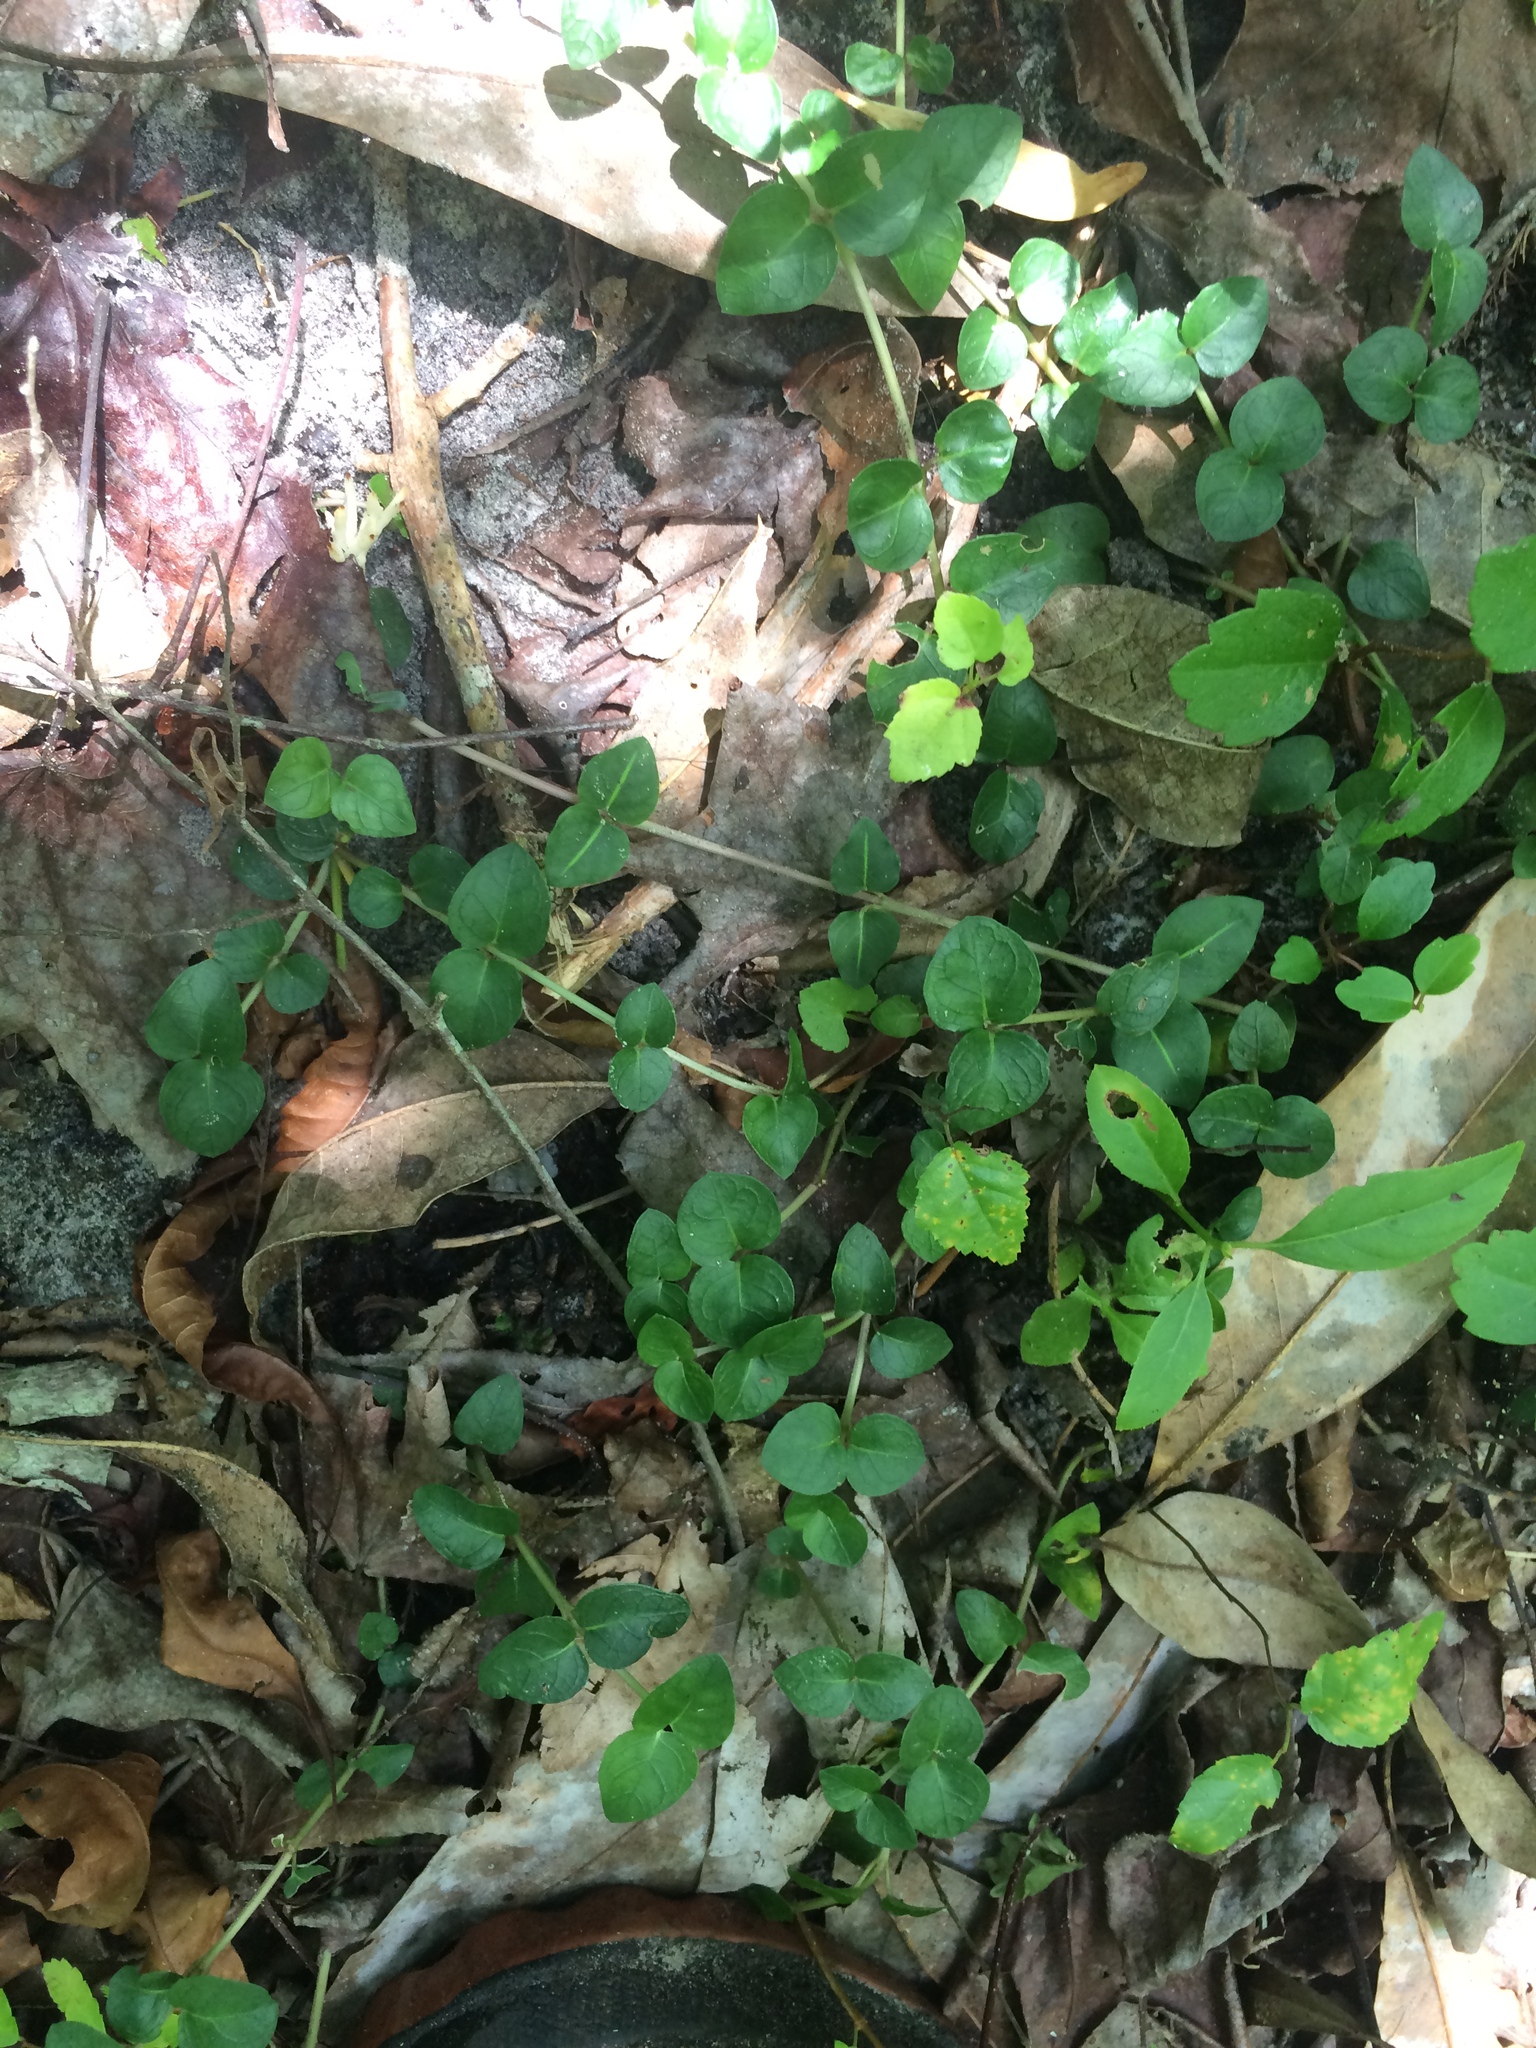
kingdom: Plantae
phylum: Tracheophyta
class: Magnoliopsida
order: Gentianales
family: Rubiaceae
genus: Mitchella
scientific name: Mitchella repens
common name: Partridge-berry
